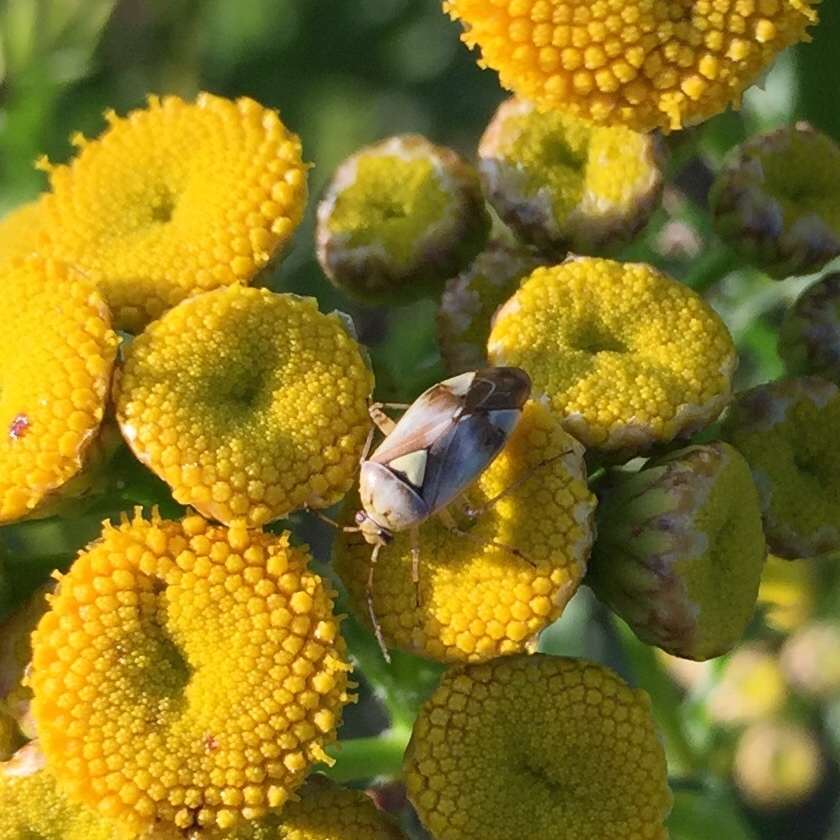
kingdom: Animalia
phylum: Arthropoda
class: Insecta
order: Hemiptera
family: Miridae
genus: Lygus
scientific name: Lygus pratensis
